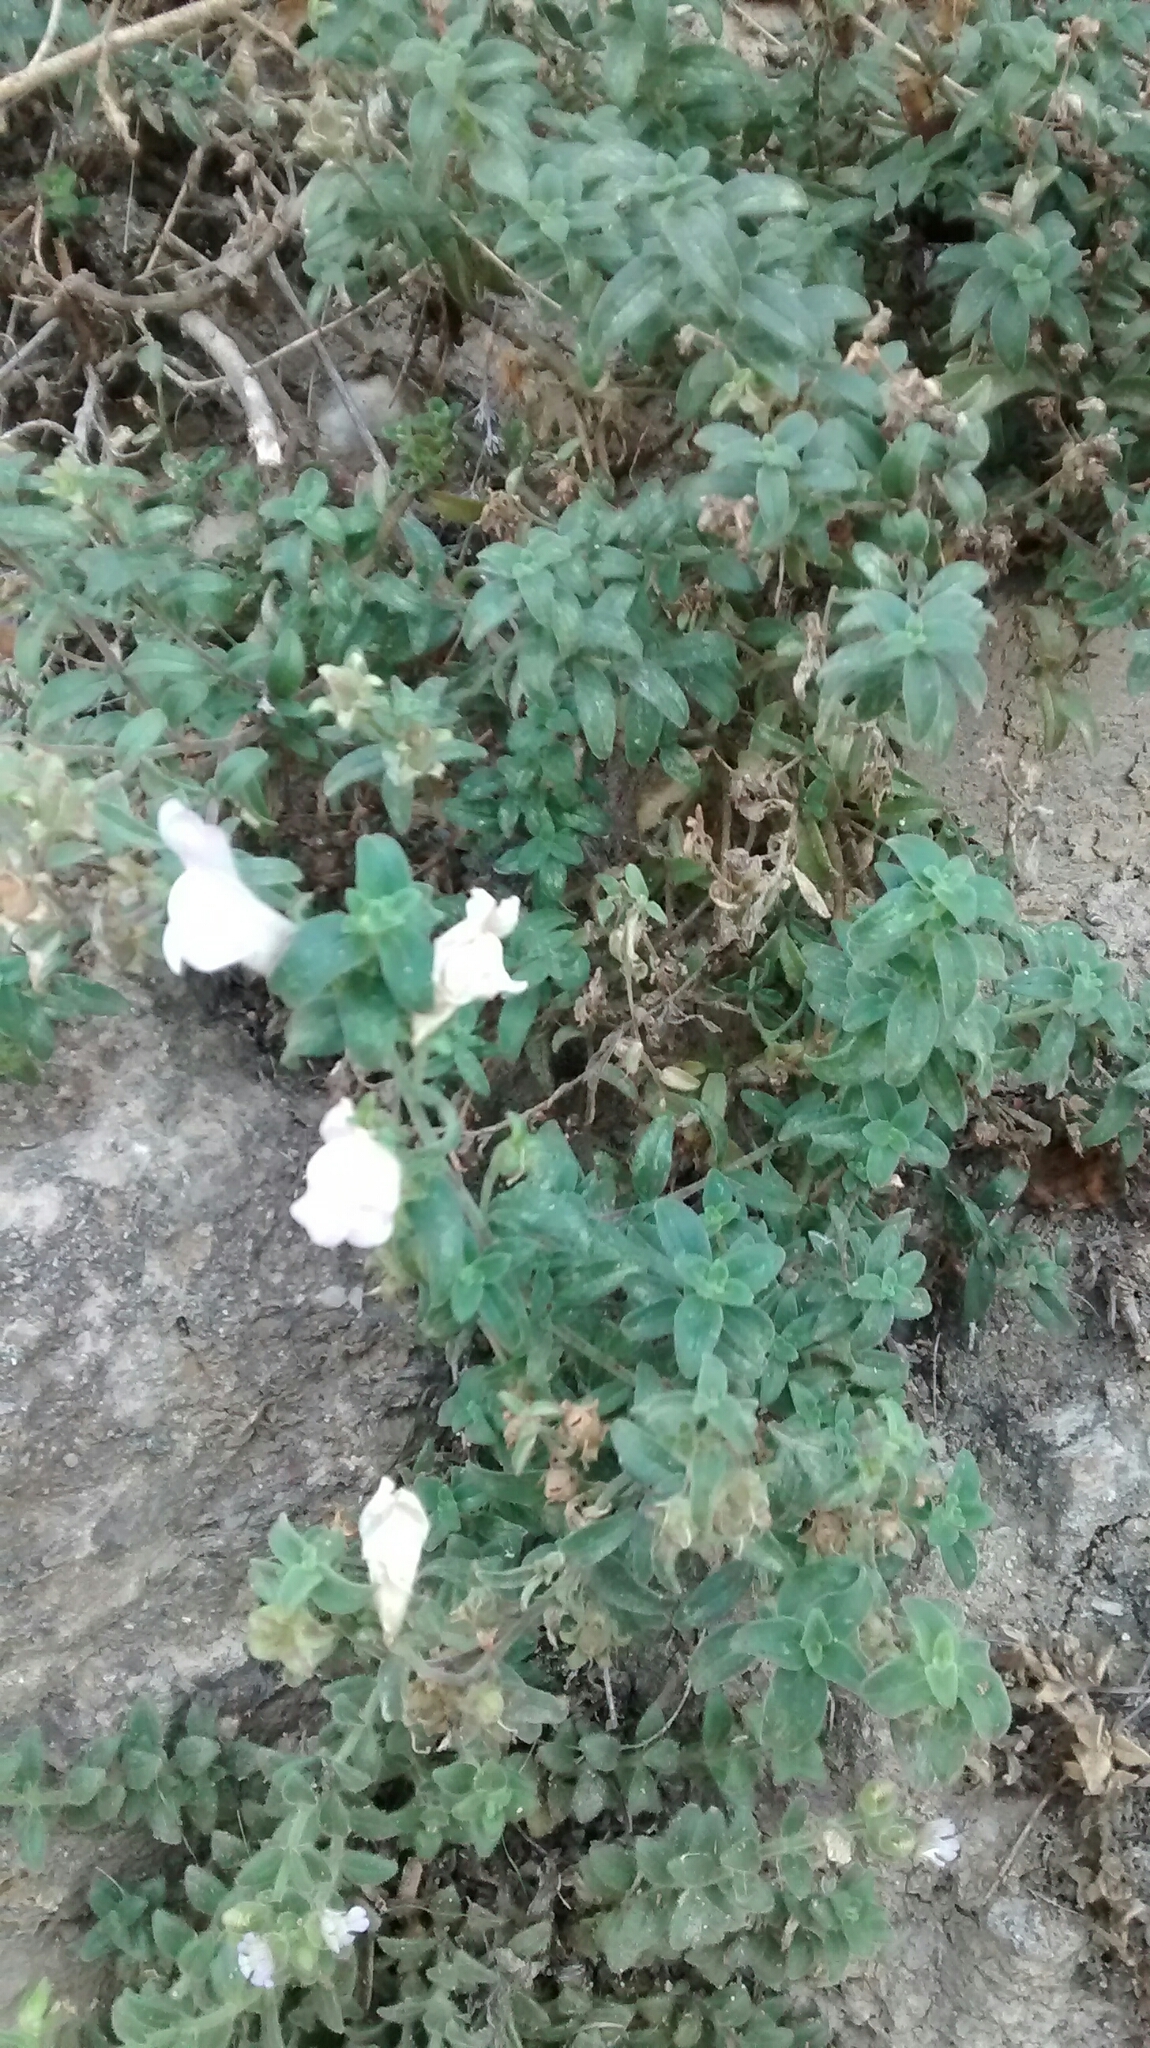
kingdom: Plantae
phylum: Tracheophyta
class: Magnoliopsida
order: Lamiales
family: Plantaginaceae
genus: Antirrhinum
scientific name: Antirrhinum hispanicum
